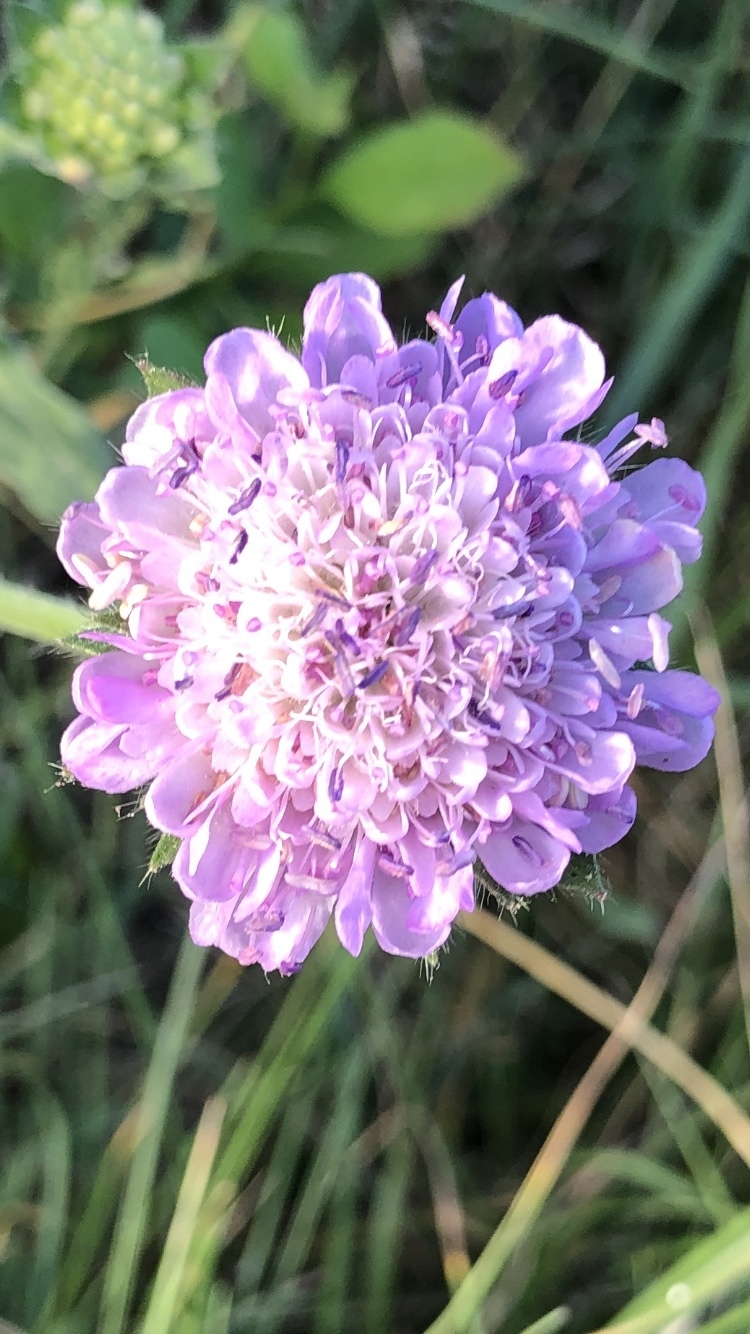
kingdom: Plantae
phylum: Tracheophyta
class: Magnoliopsida
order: Dipsacales
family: Caprifoliaceae
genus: Knautia
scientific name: Knautia arvensis
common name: Field scabiosa
